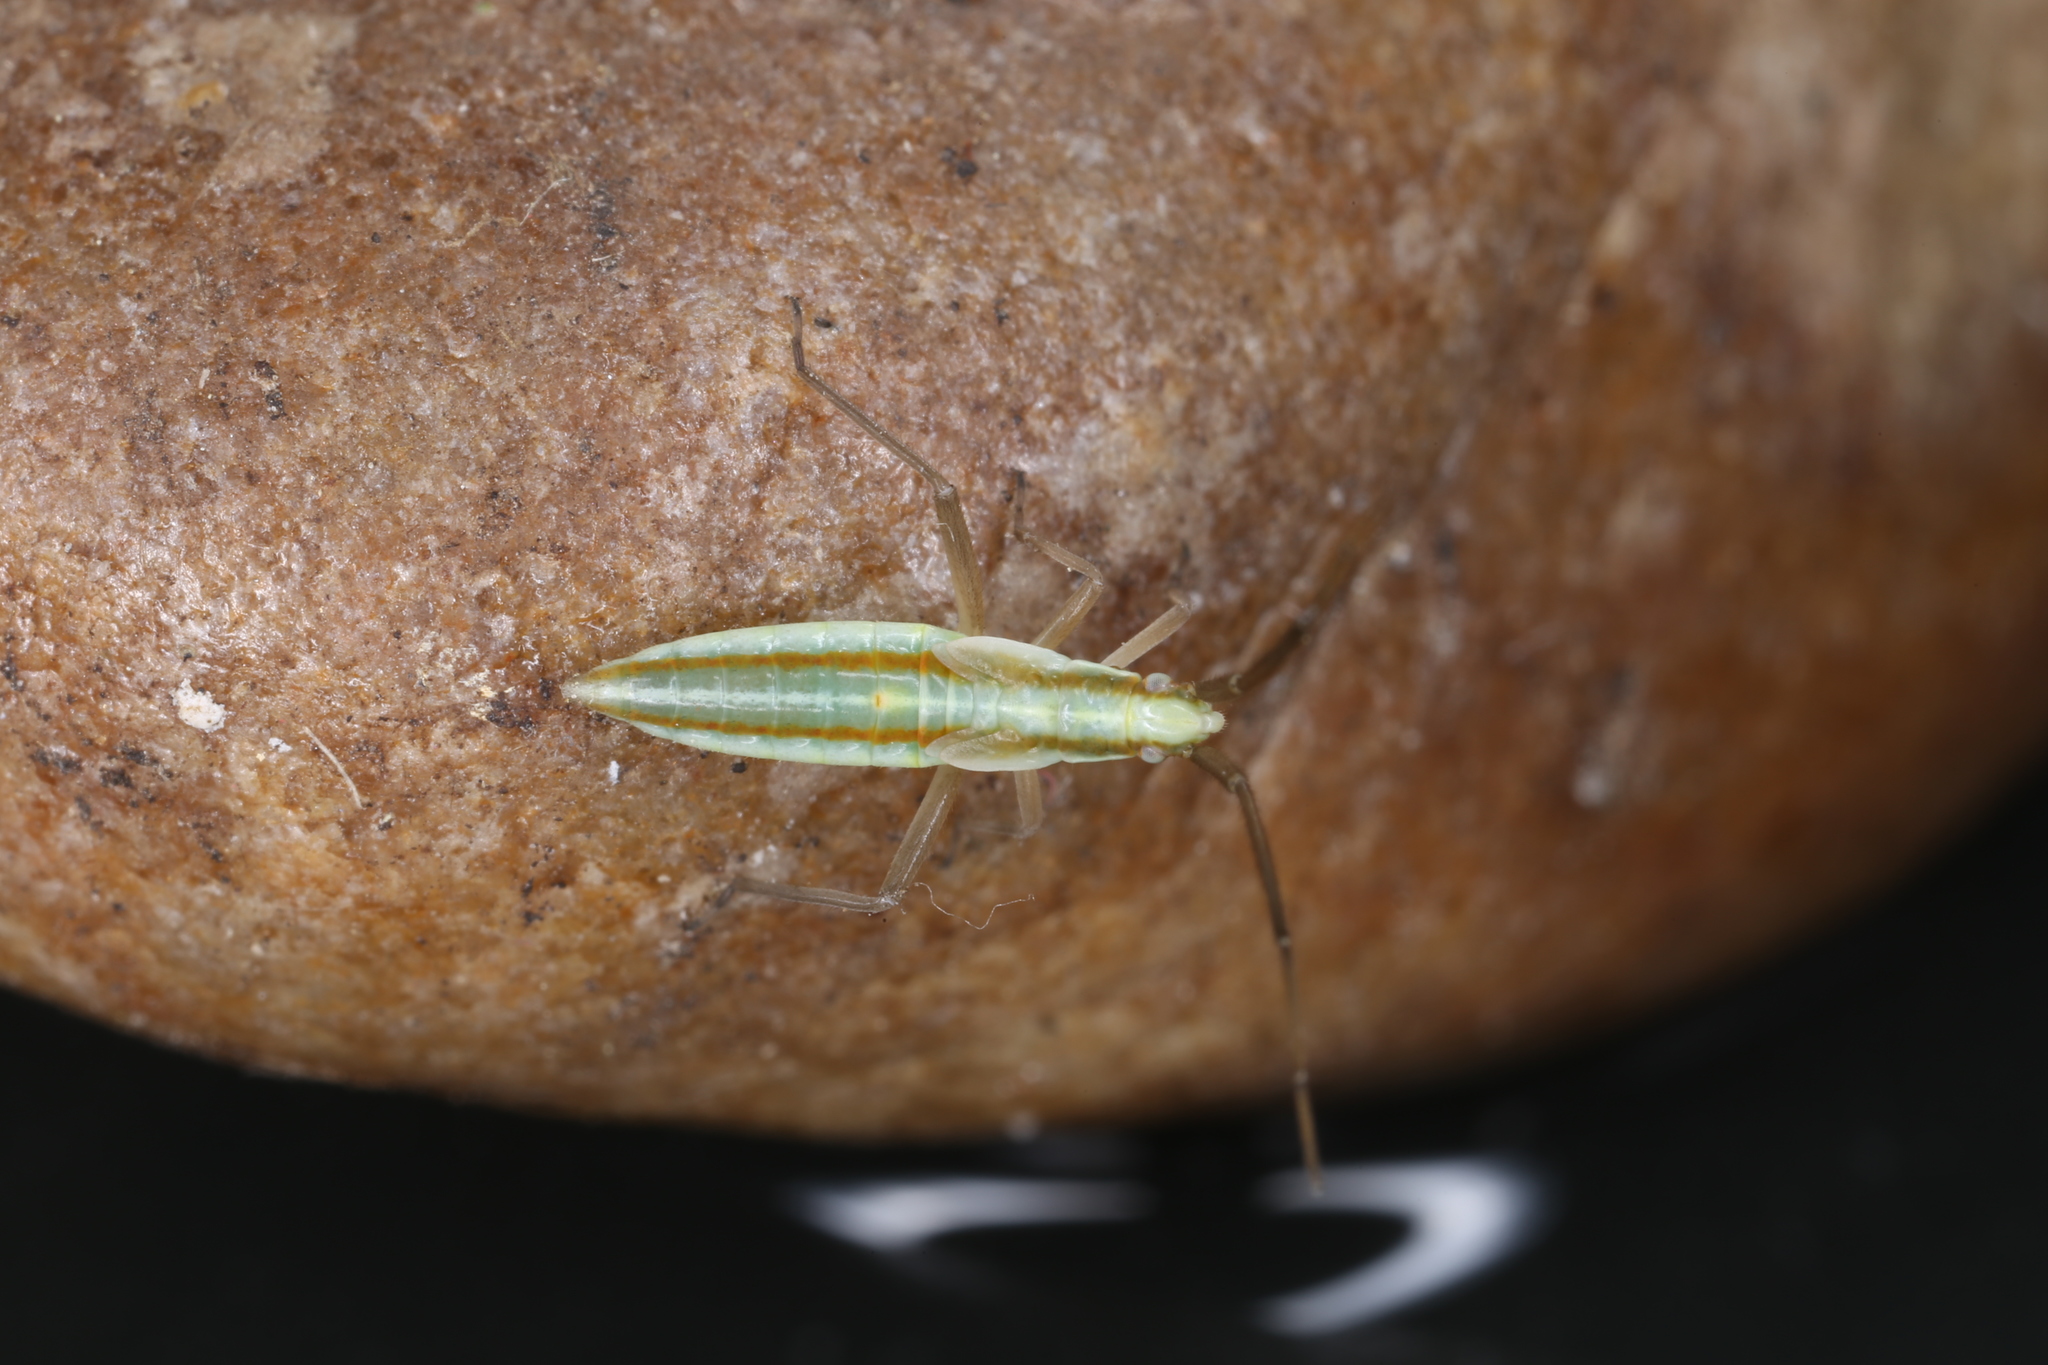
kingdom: Animalia
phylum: Arthropoda
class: Insecta
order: Hemiptera
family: Miridae
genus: Stenodema
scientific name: Stenodema laevigata
